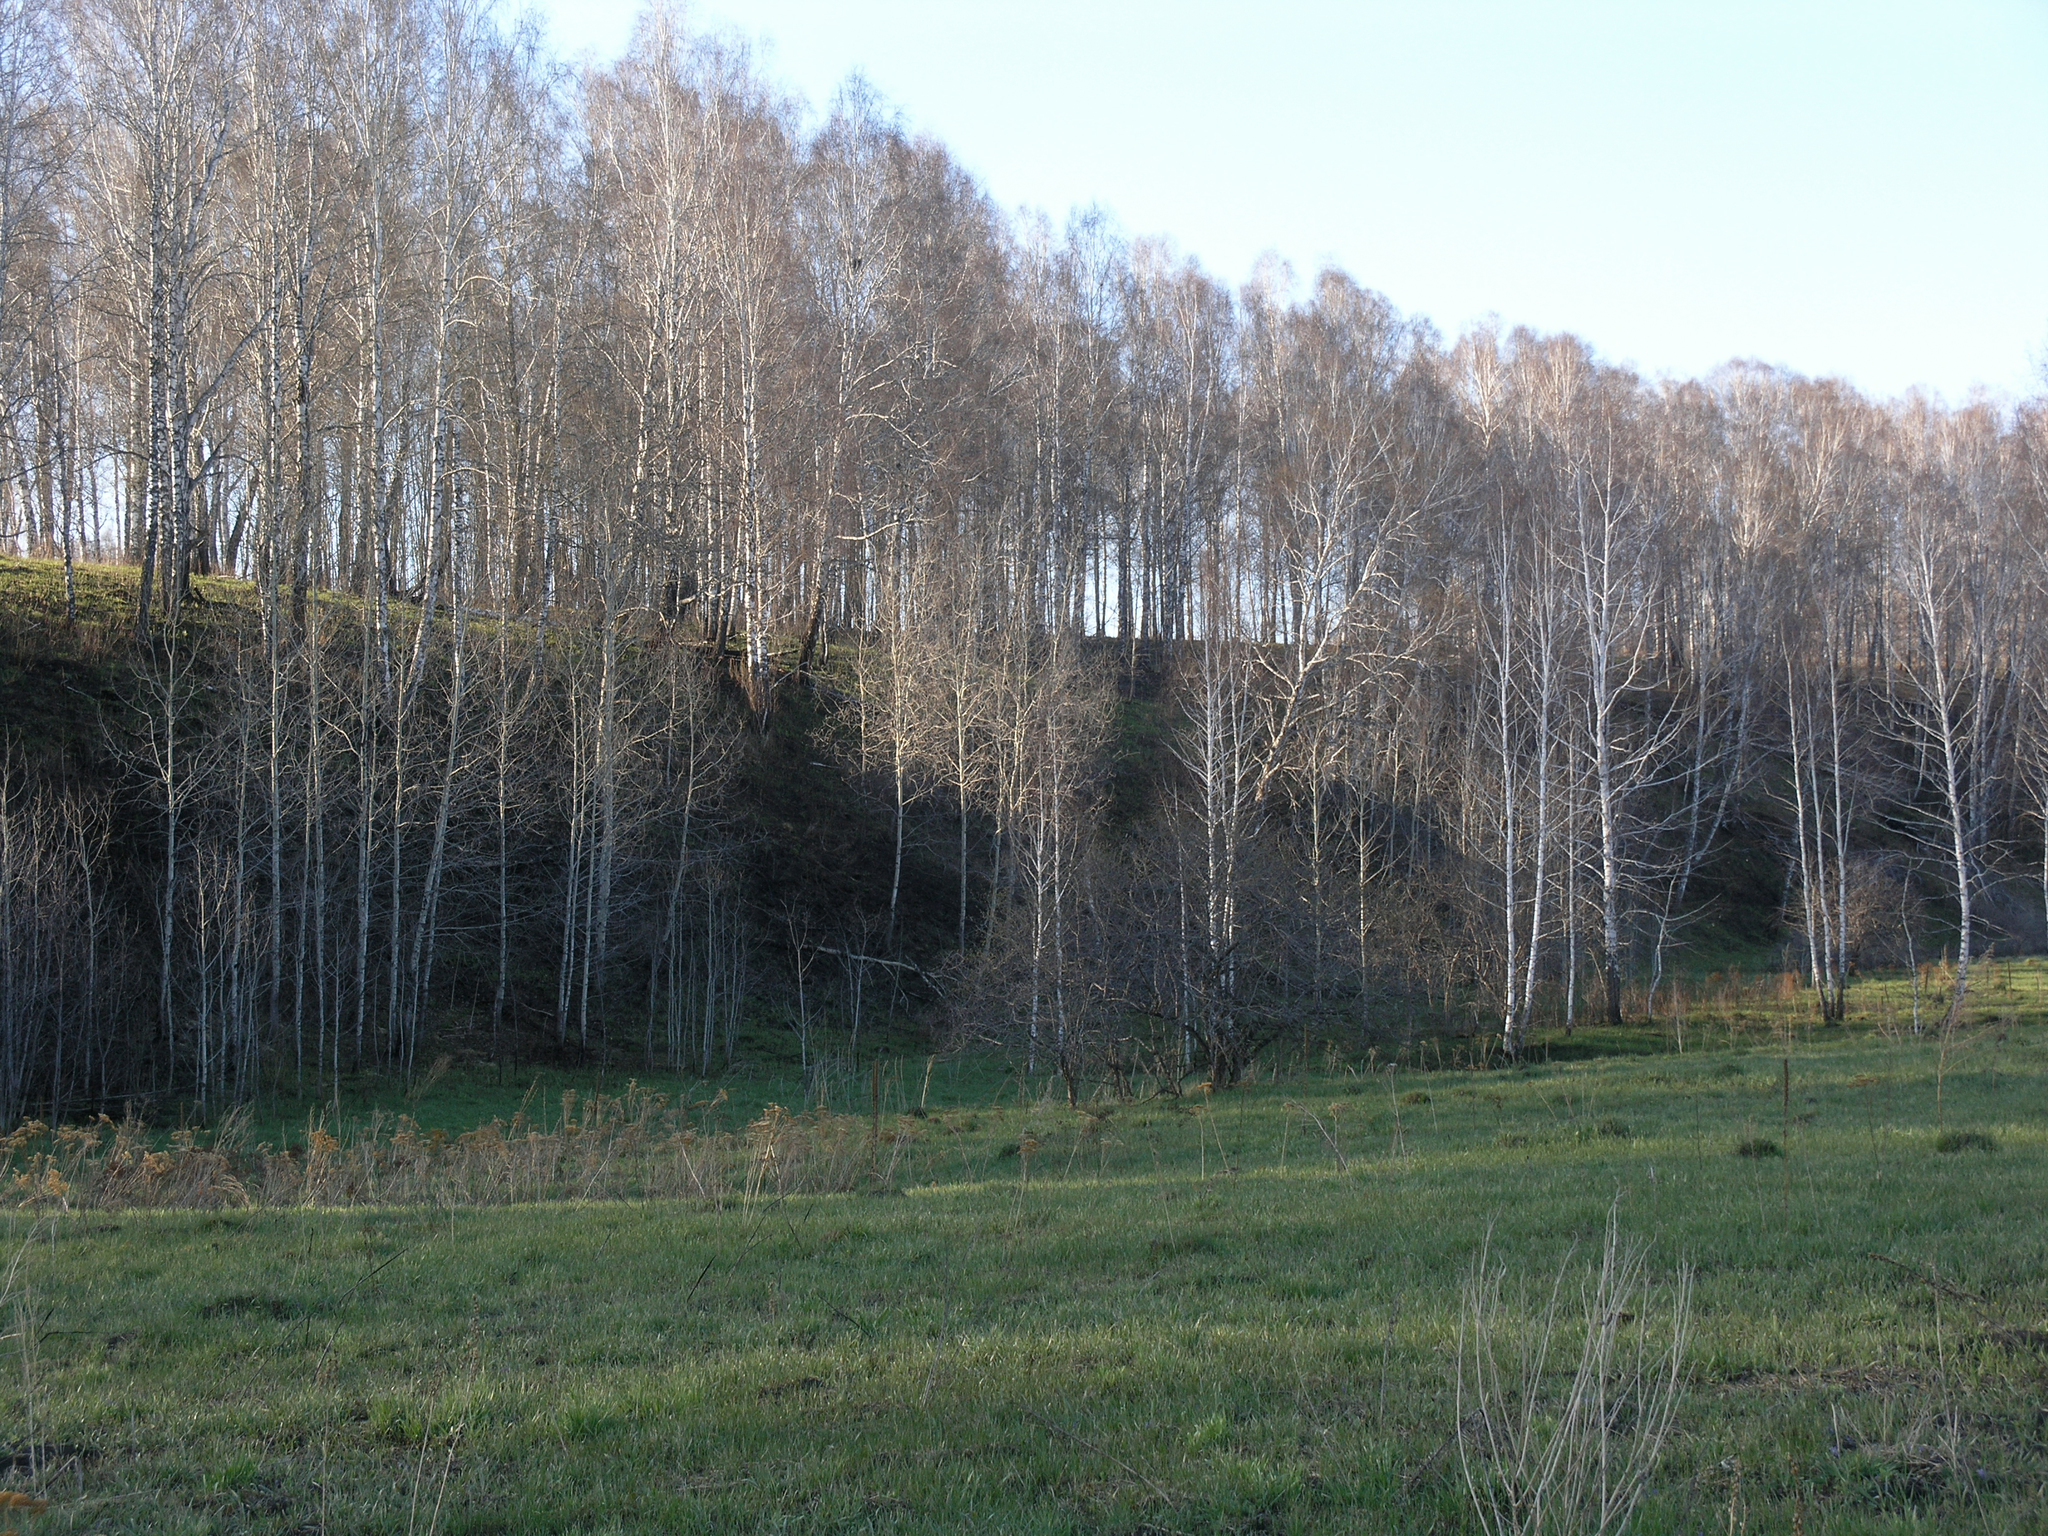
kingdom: Plantae
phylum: Tracheophyta
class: Magnoliopsida
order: Malpighiales
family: Salicaceae
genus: Populus
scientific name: Populus tremula
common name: European aspen
